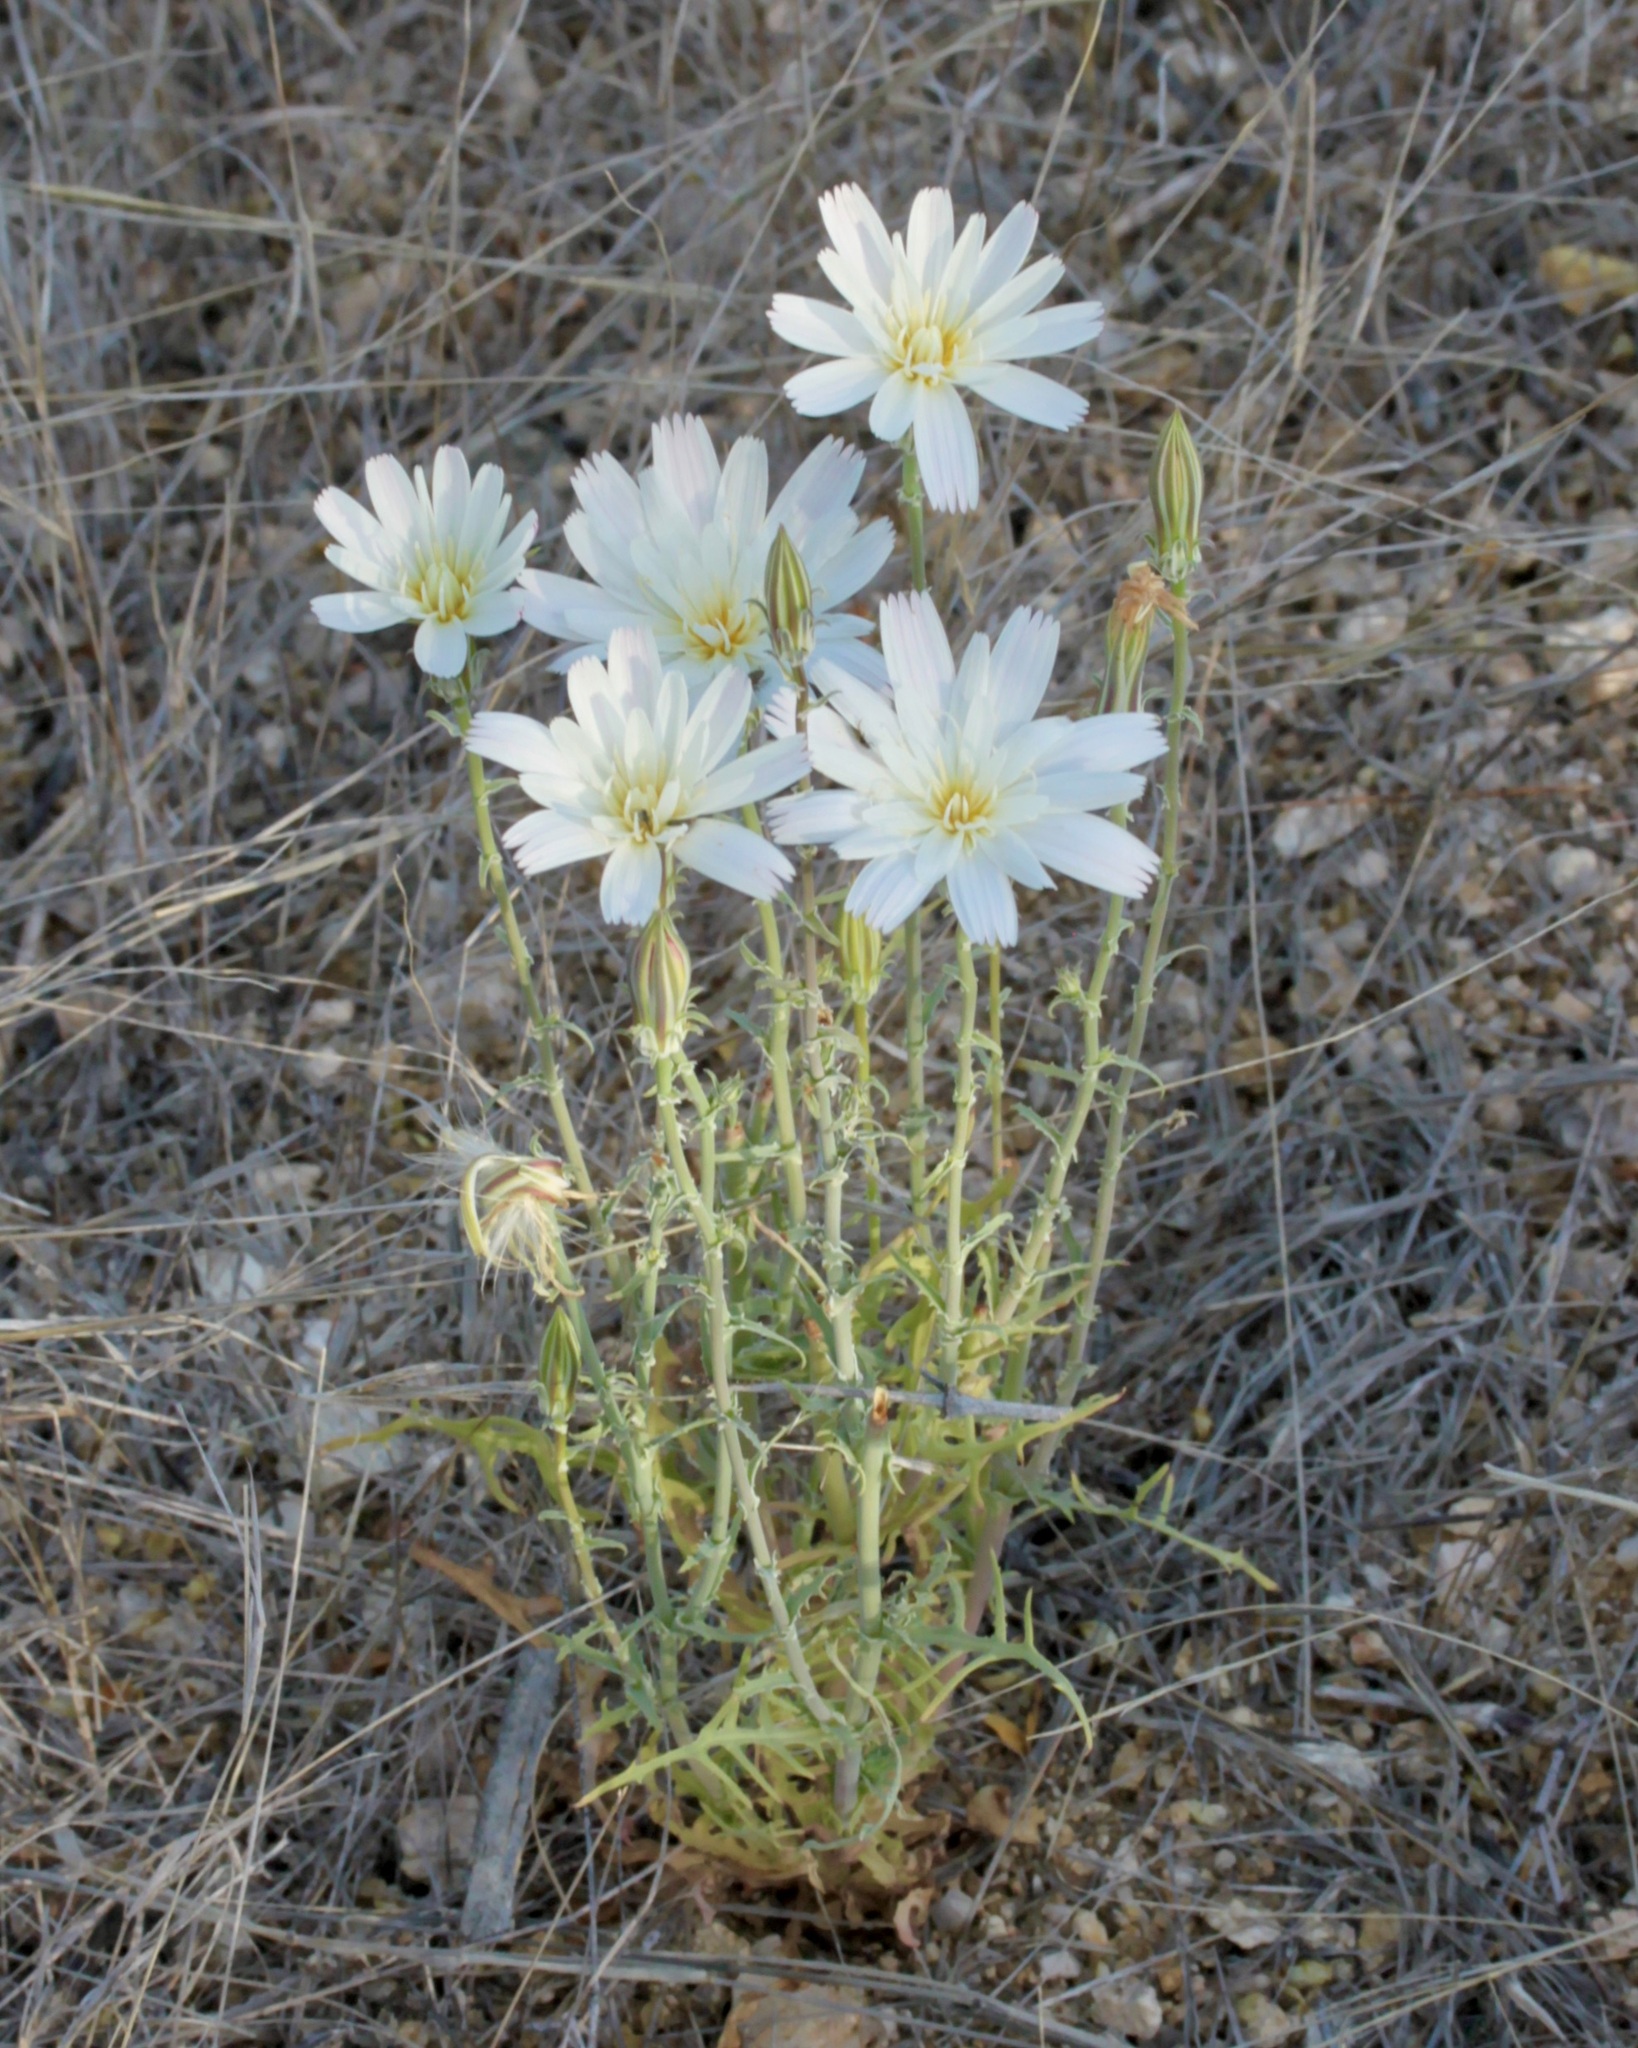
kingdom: Plantae
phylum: Tracheophyta
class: Magnoliopsida
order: Asterales
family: Asteraceae
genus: Rafinesquia
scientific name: Rafinesquia neomexicana
